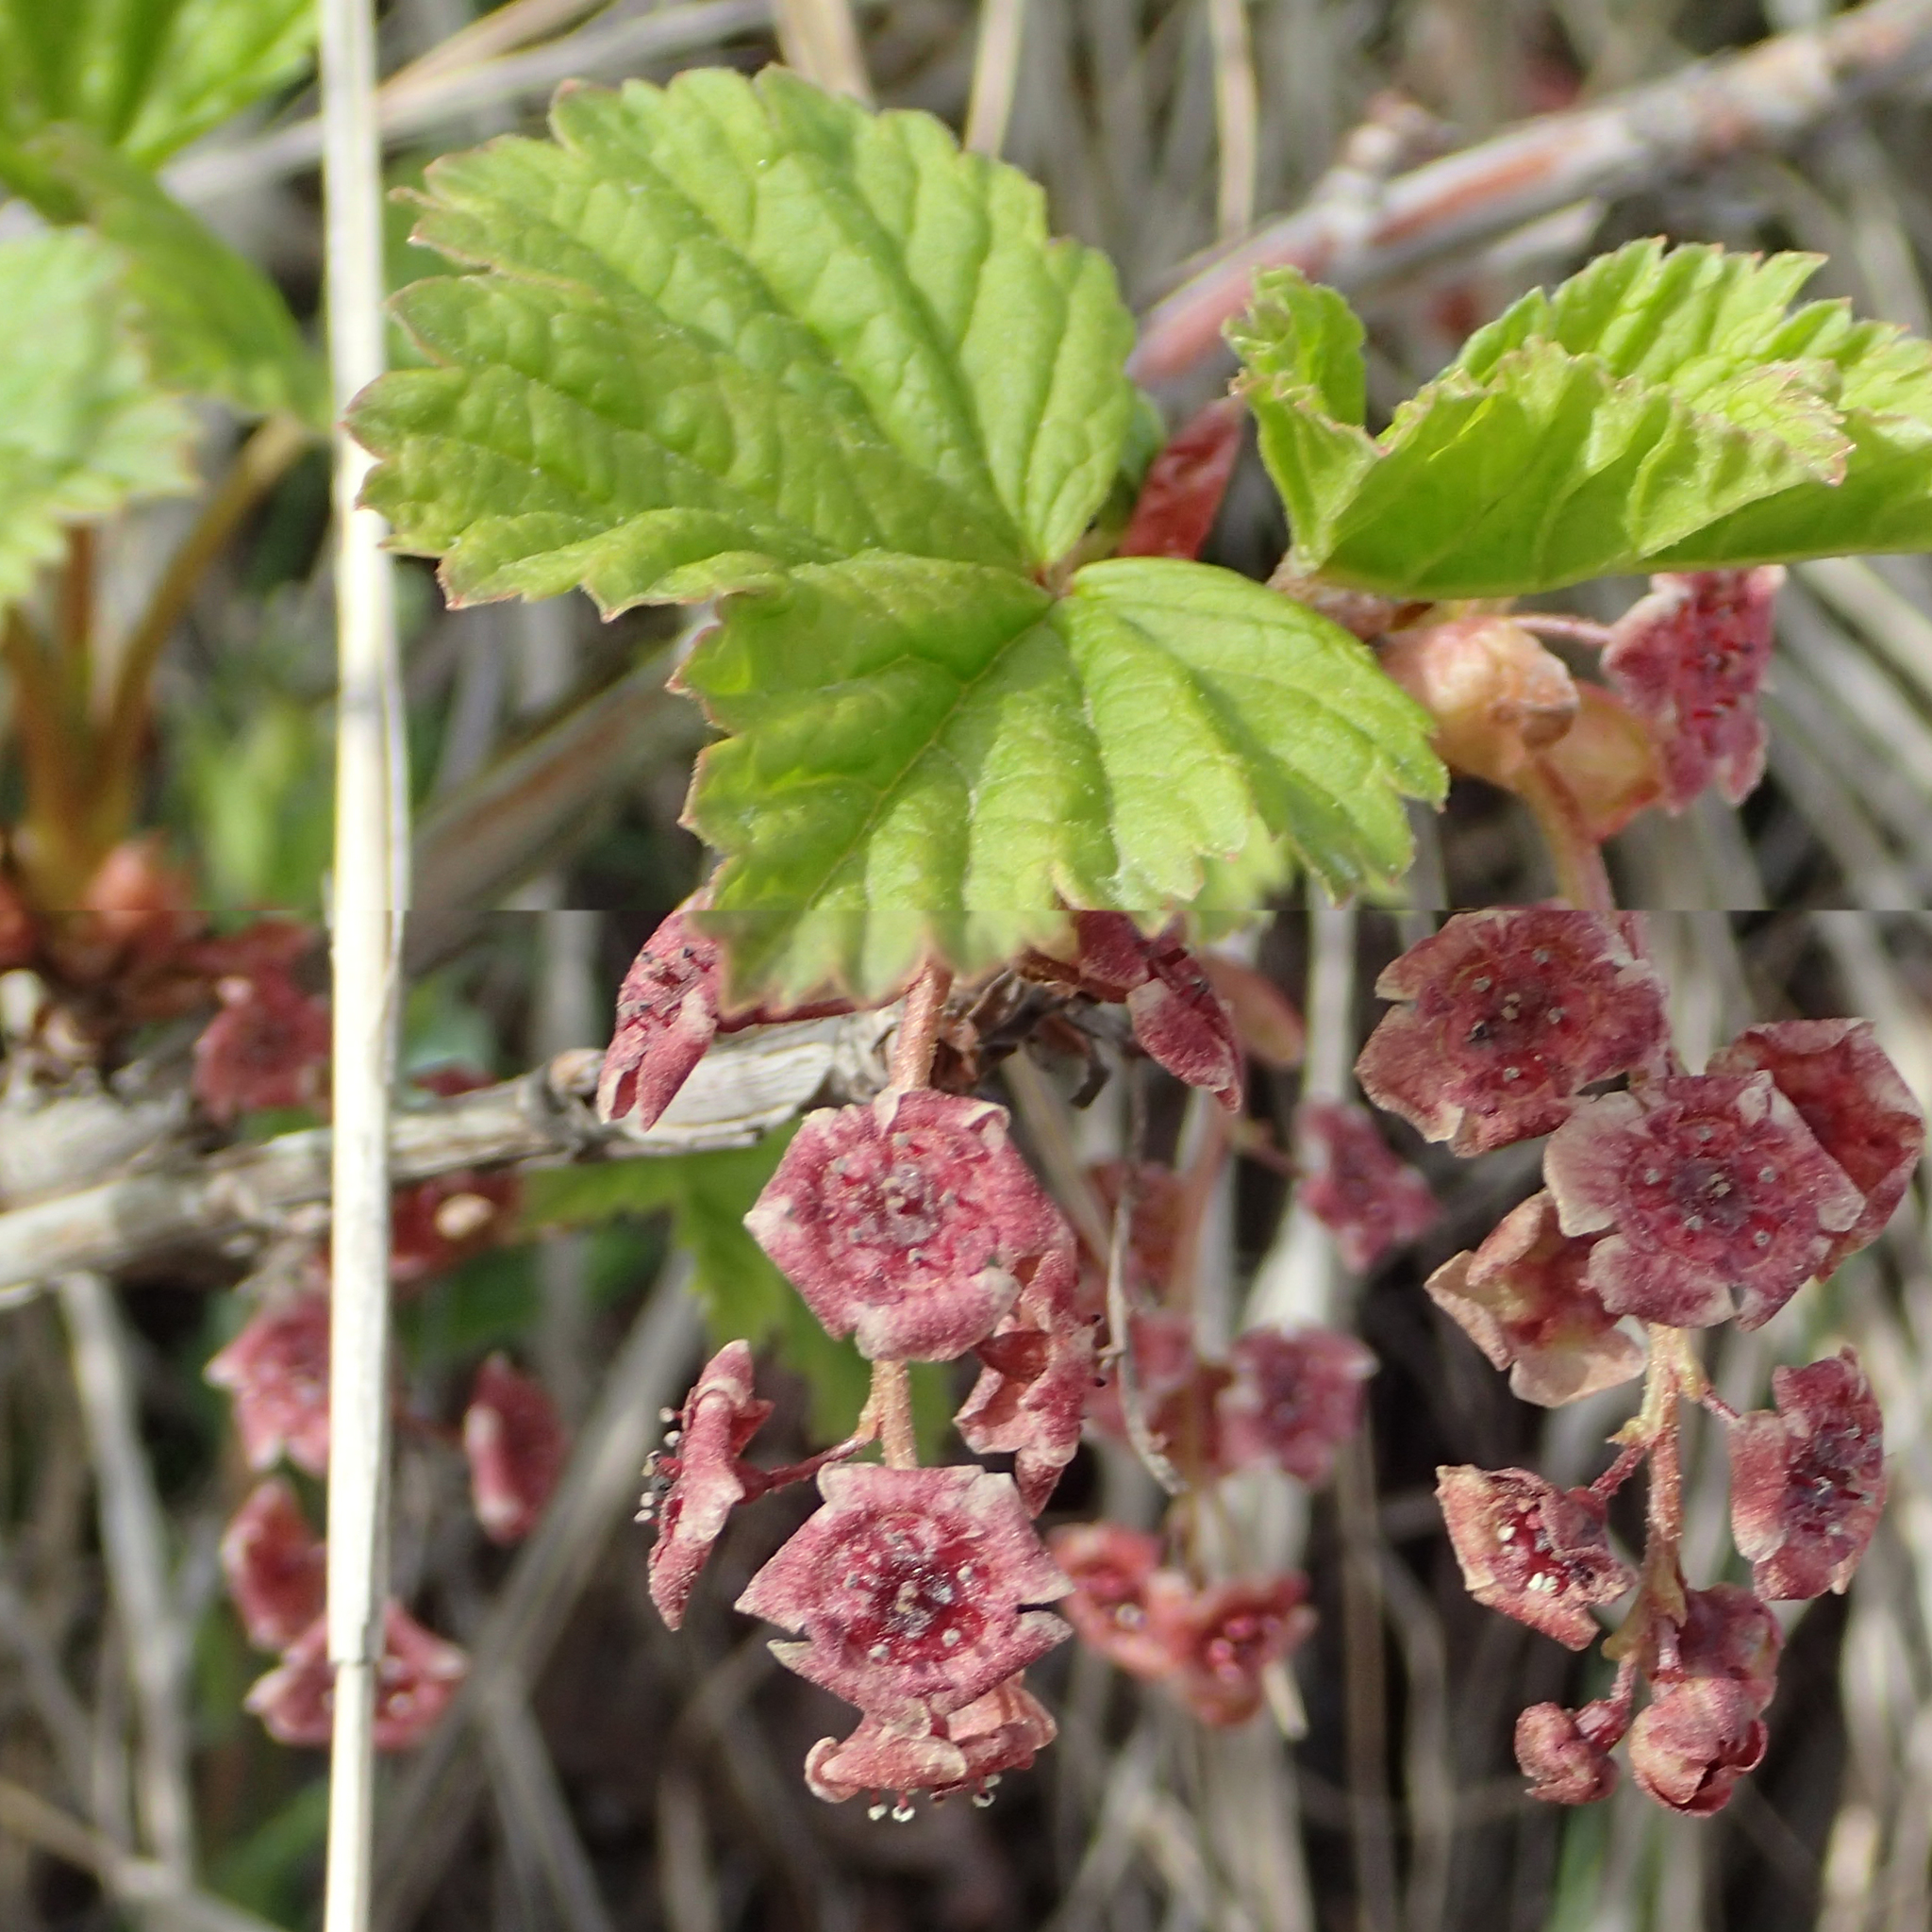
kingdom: Plantae
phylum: Tracheophyta
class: Magnoliopsida
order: Saxifragales
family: Grossulariaceae
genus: Ribes
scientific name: Ribes triste
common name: Swamp red currant
